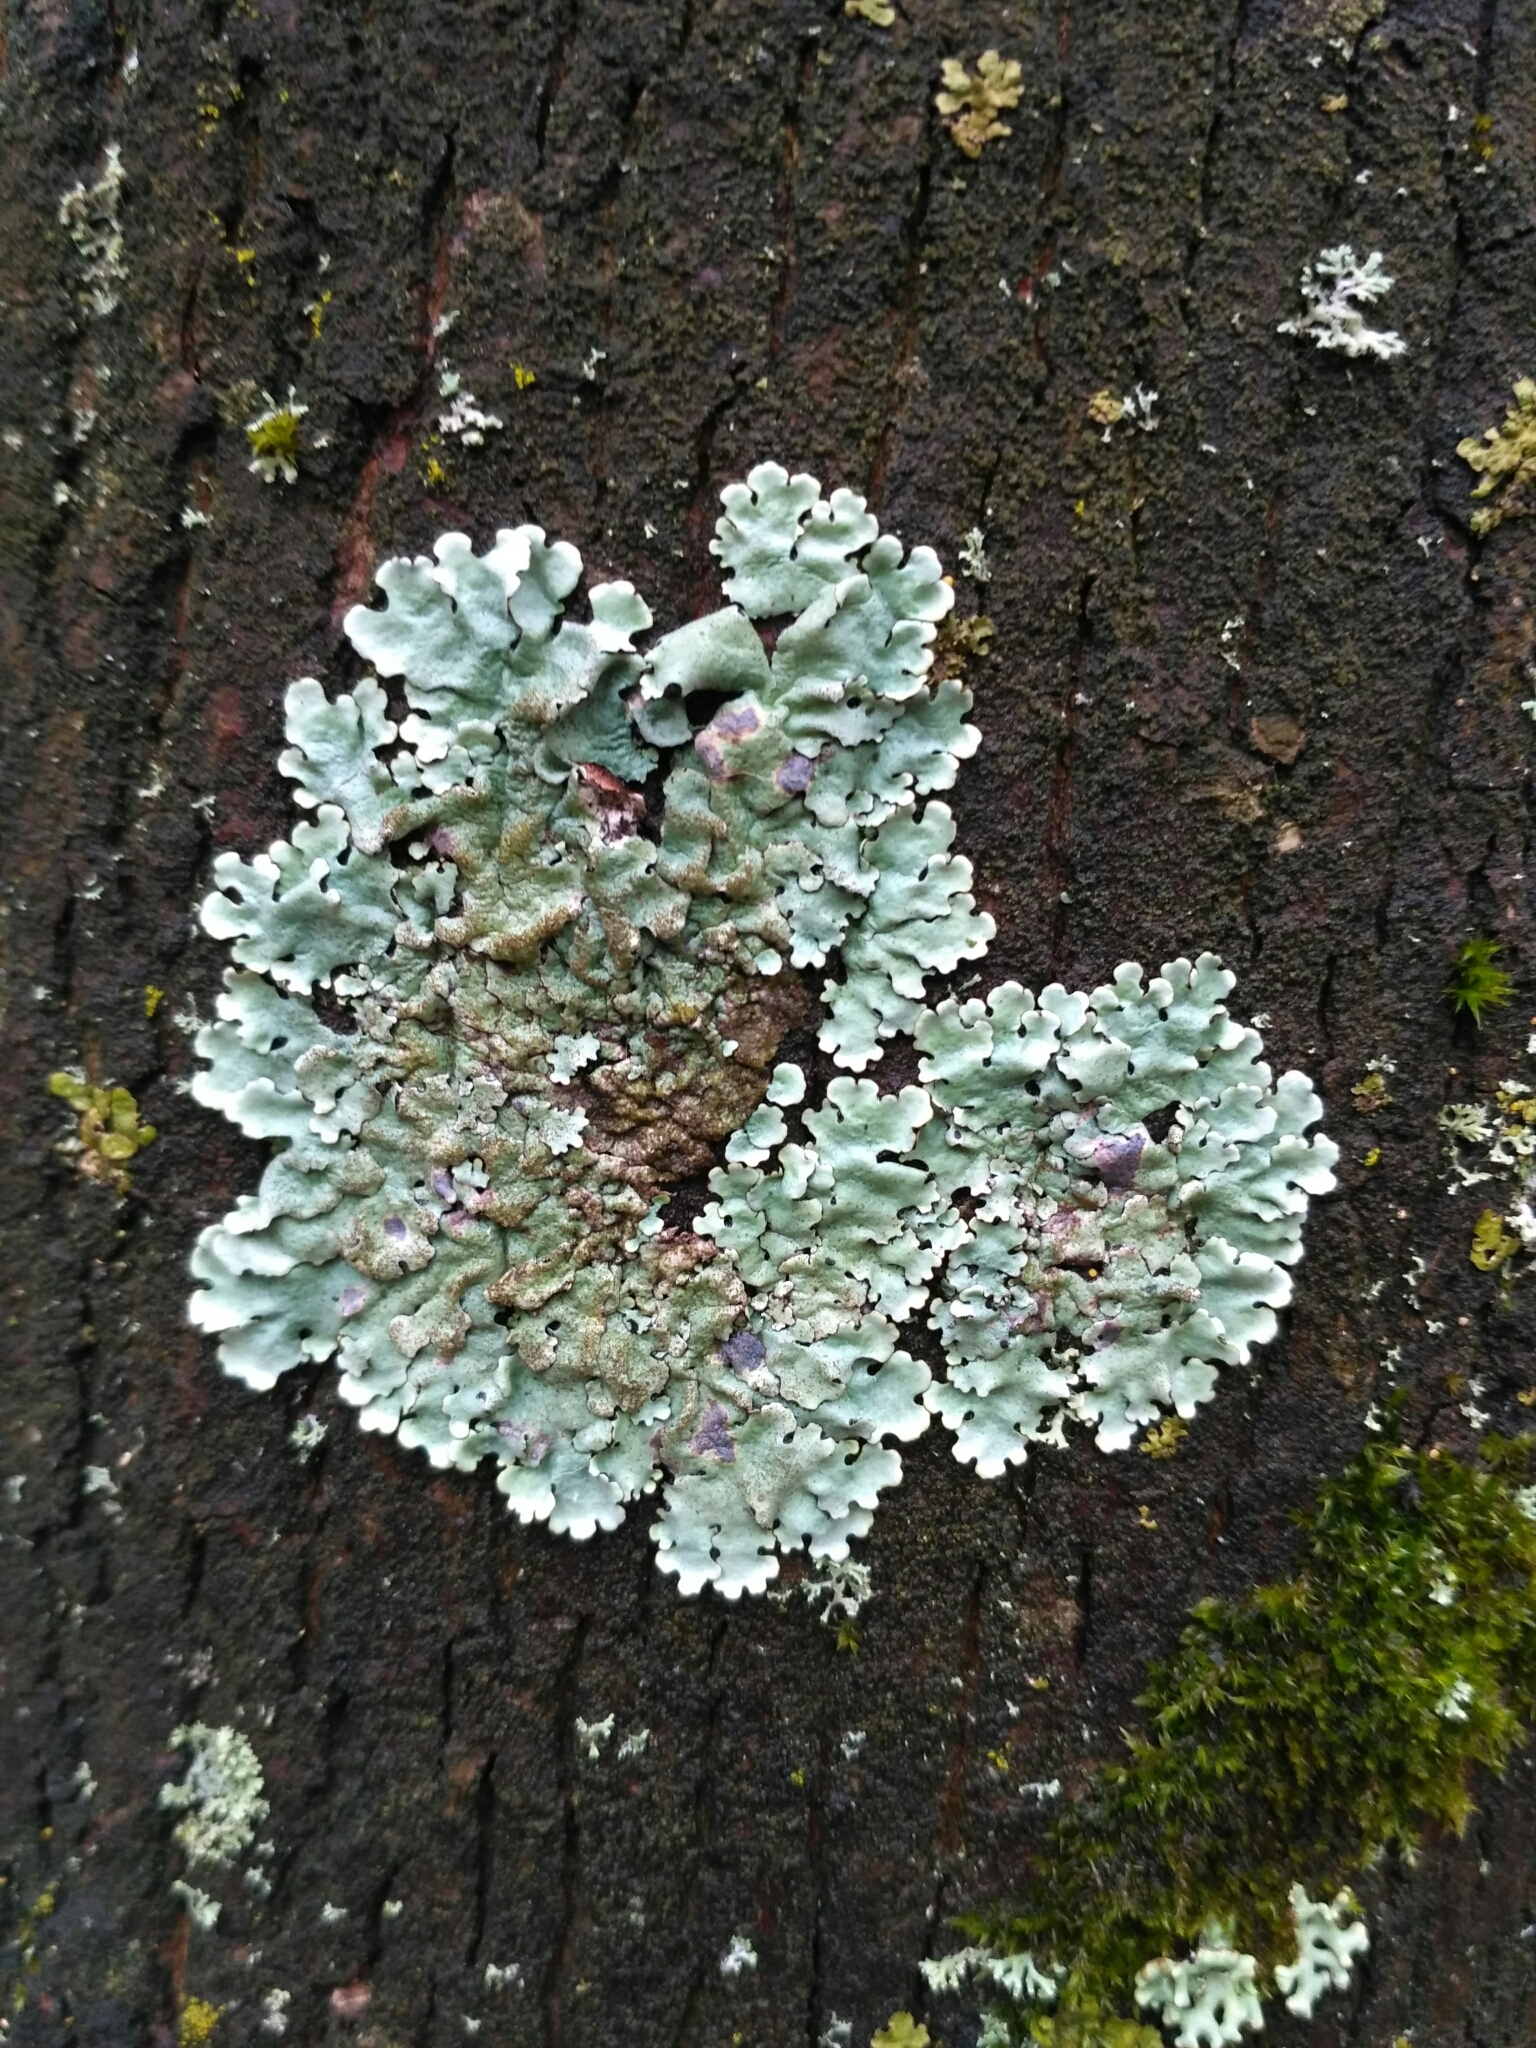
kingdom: Fungi
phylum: Ascomycota
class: Lecanoromycetes
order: Lecanorales
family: Parmeliaceae
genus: Parmelina
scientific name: Parmelina tiliacea
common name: Linden shield lichen
